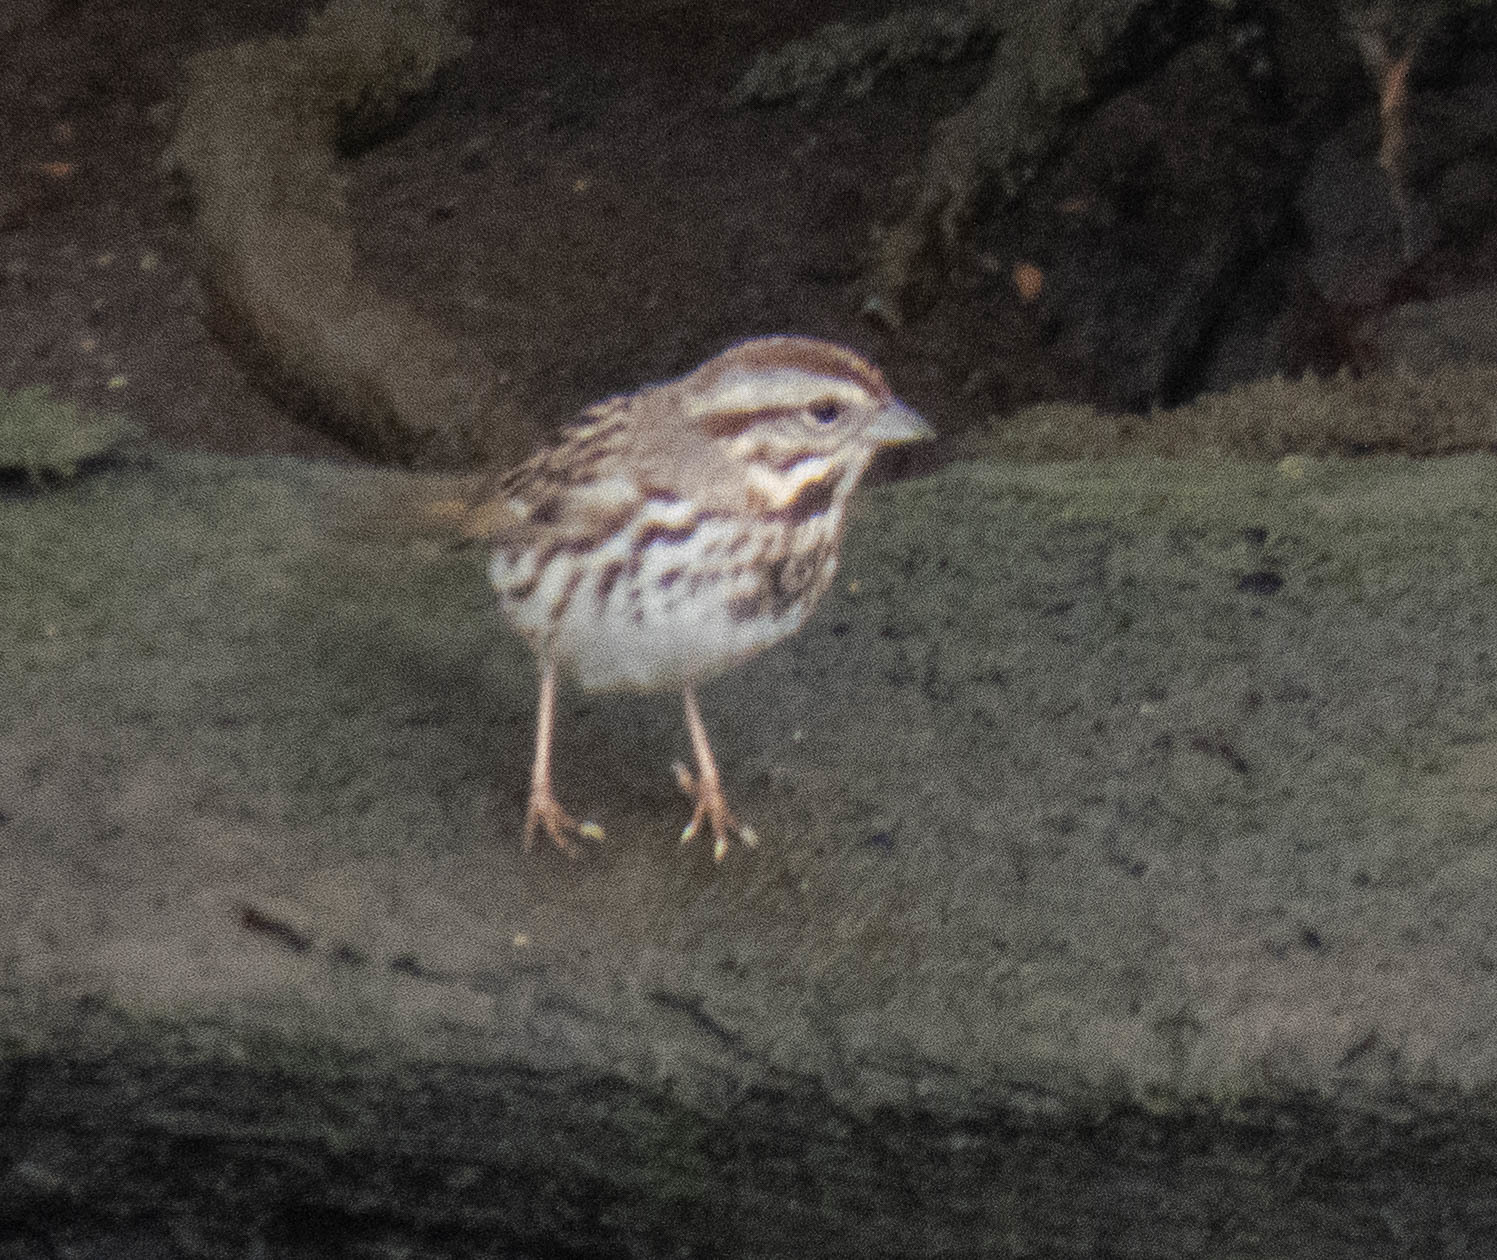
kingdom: Animalia
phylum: Chordata
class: Aves
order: Passeriformes
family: Passerellidae
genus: Melospiza
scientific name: Melospiza melodia
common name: Song sparrow
